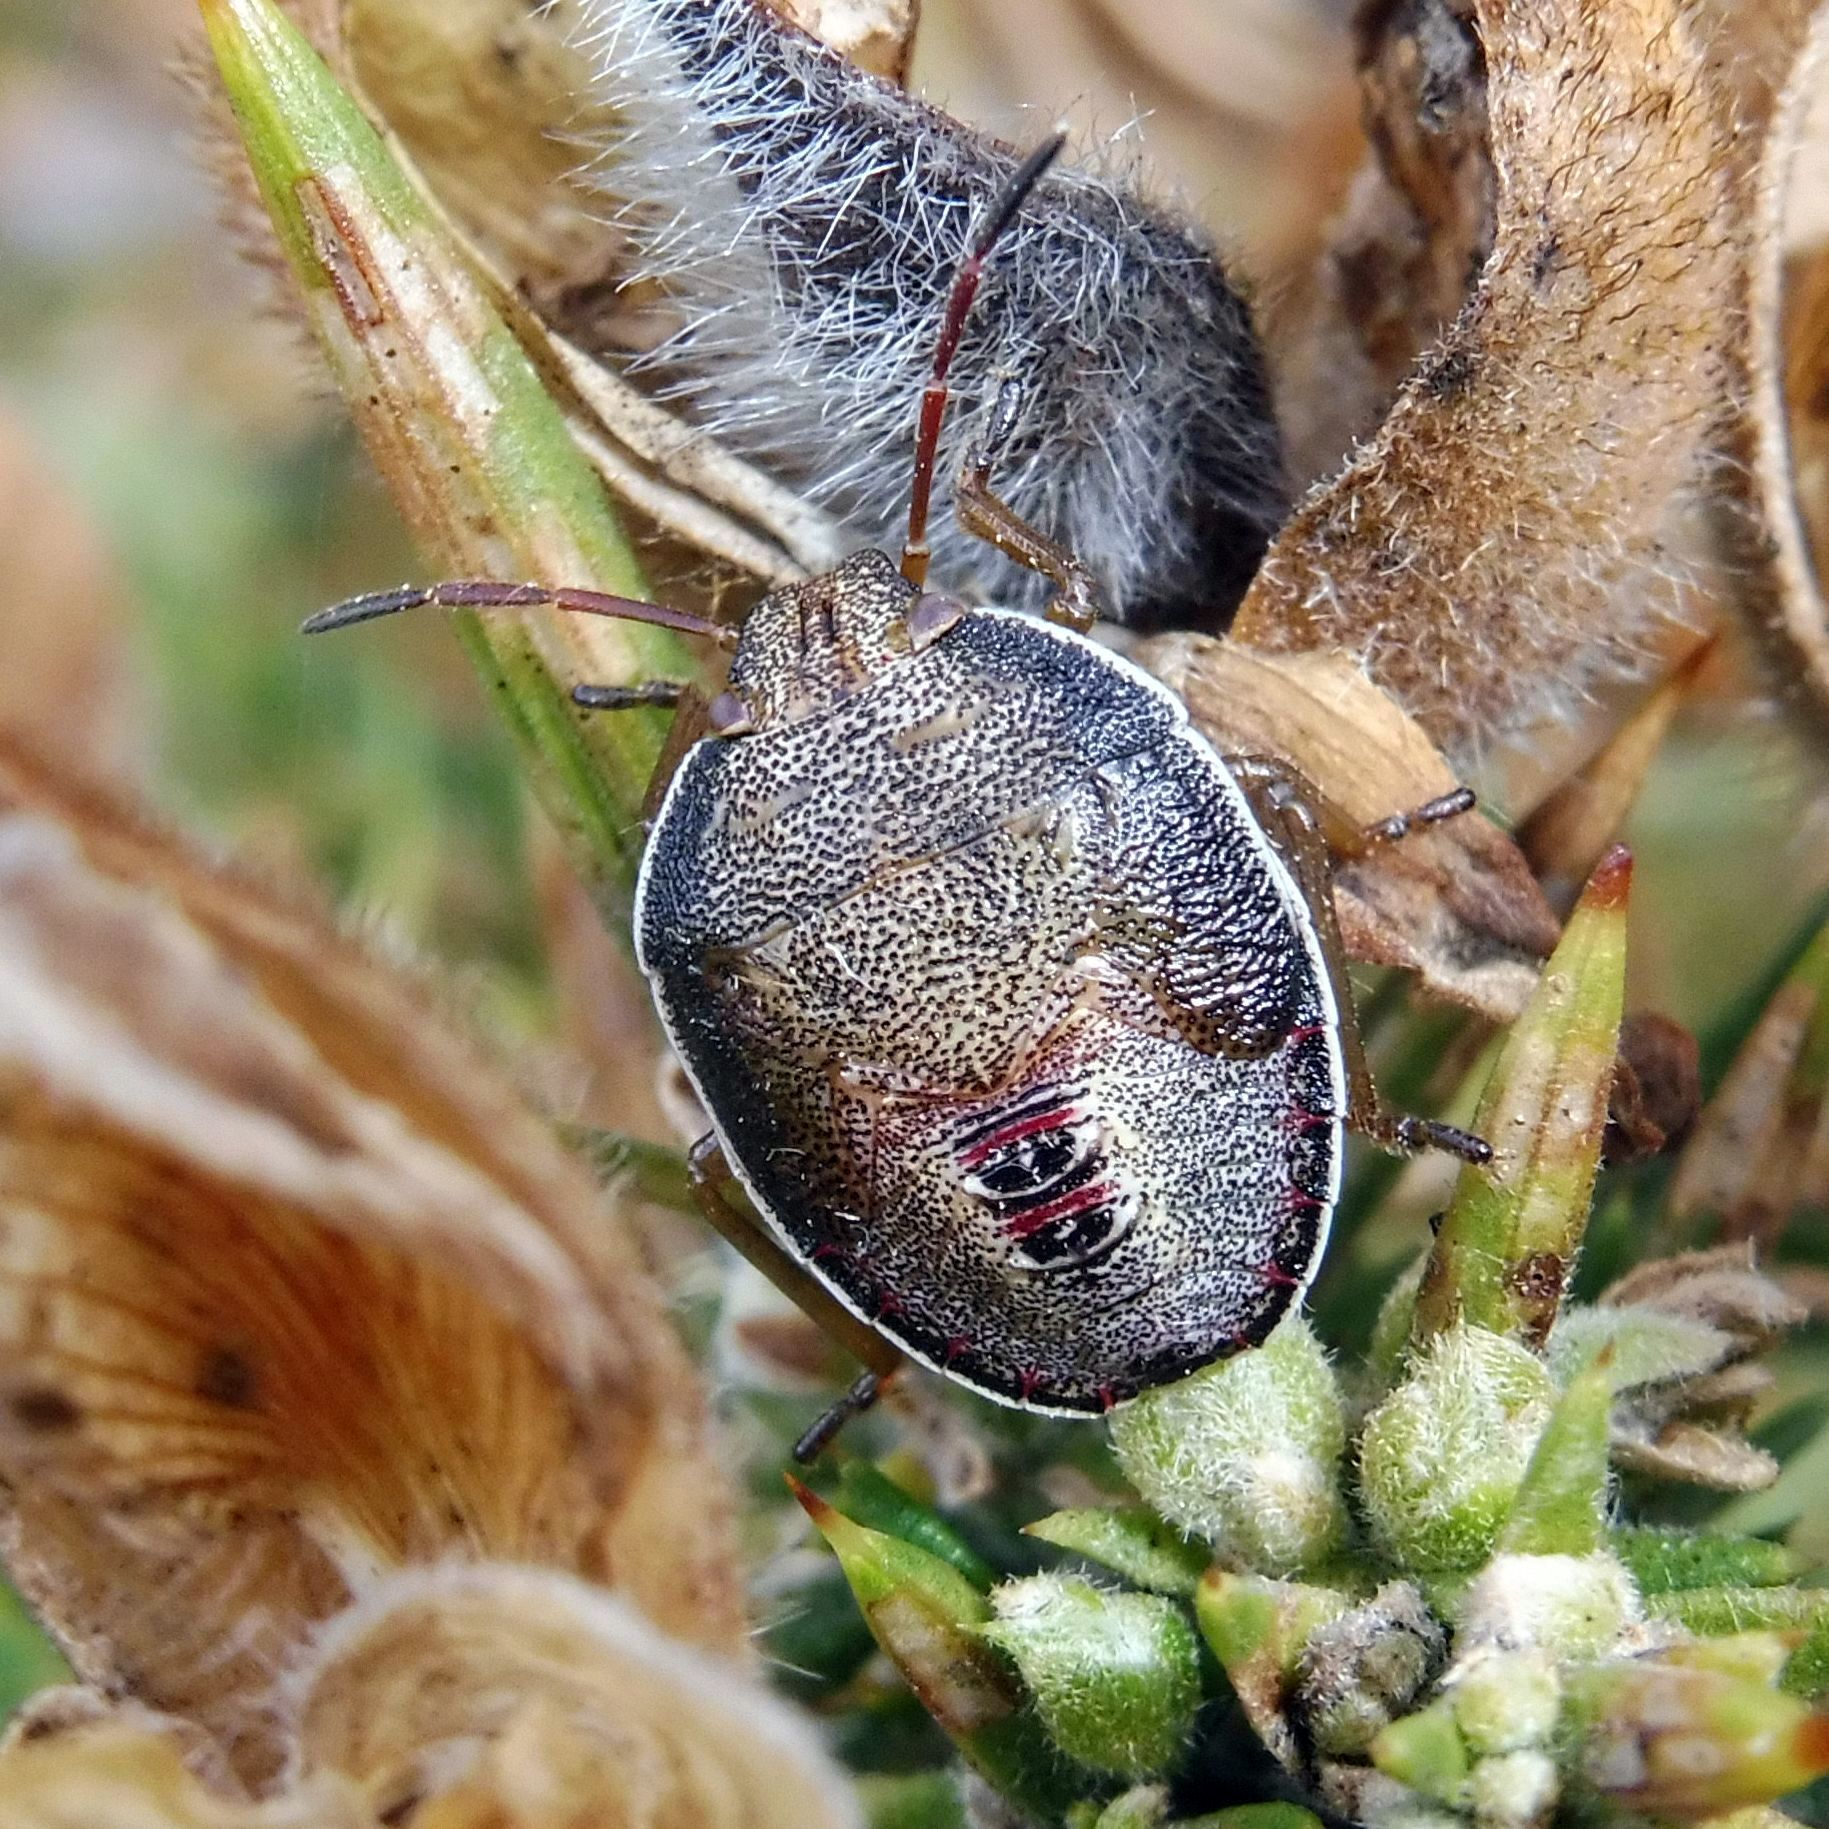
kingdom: Animalia
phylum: Arthropoda
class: Insecta
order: Hemiptera
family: Pentatomidae
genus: Piezodorus
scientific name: Piezodorus lituratus
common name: Stink bug
